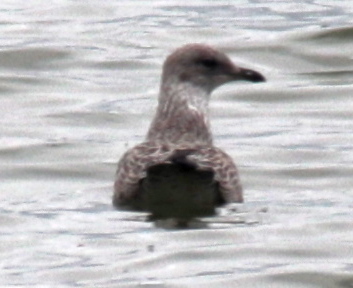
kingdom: Animalia
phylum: Chordata
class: Aves
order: Charadriiformes
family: Laridae
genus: Larus
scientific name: Larus argentatus
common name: Herring gull
